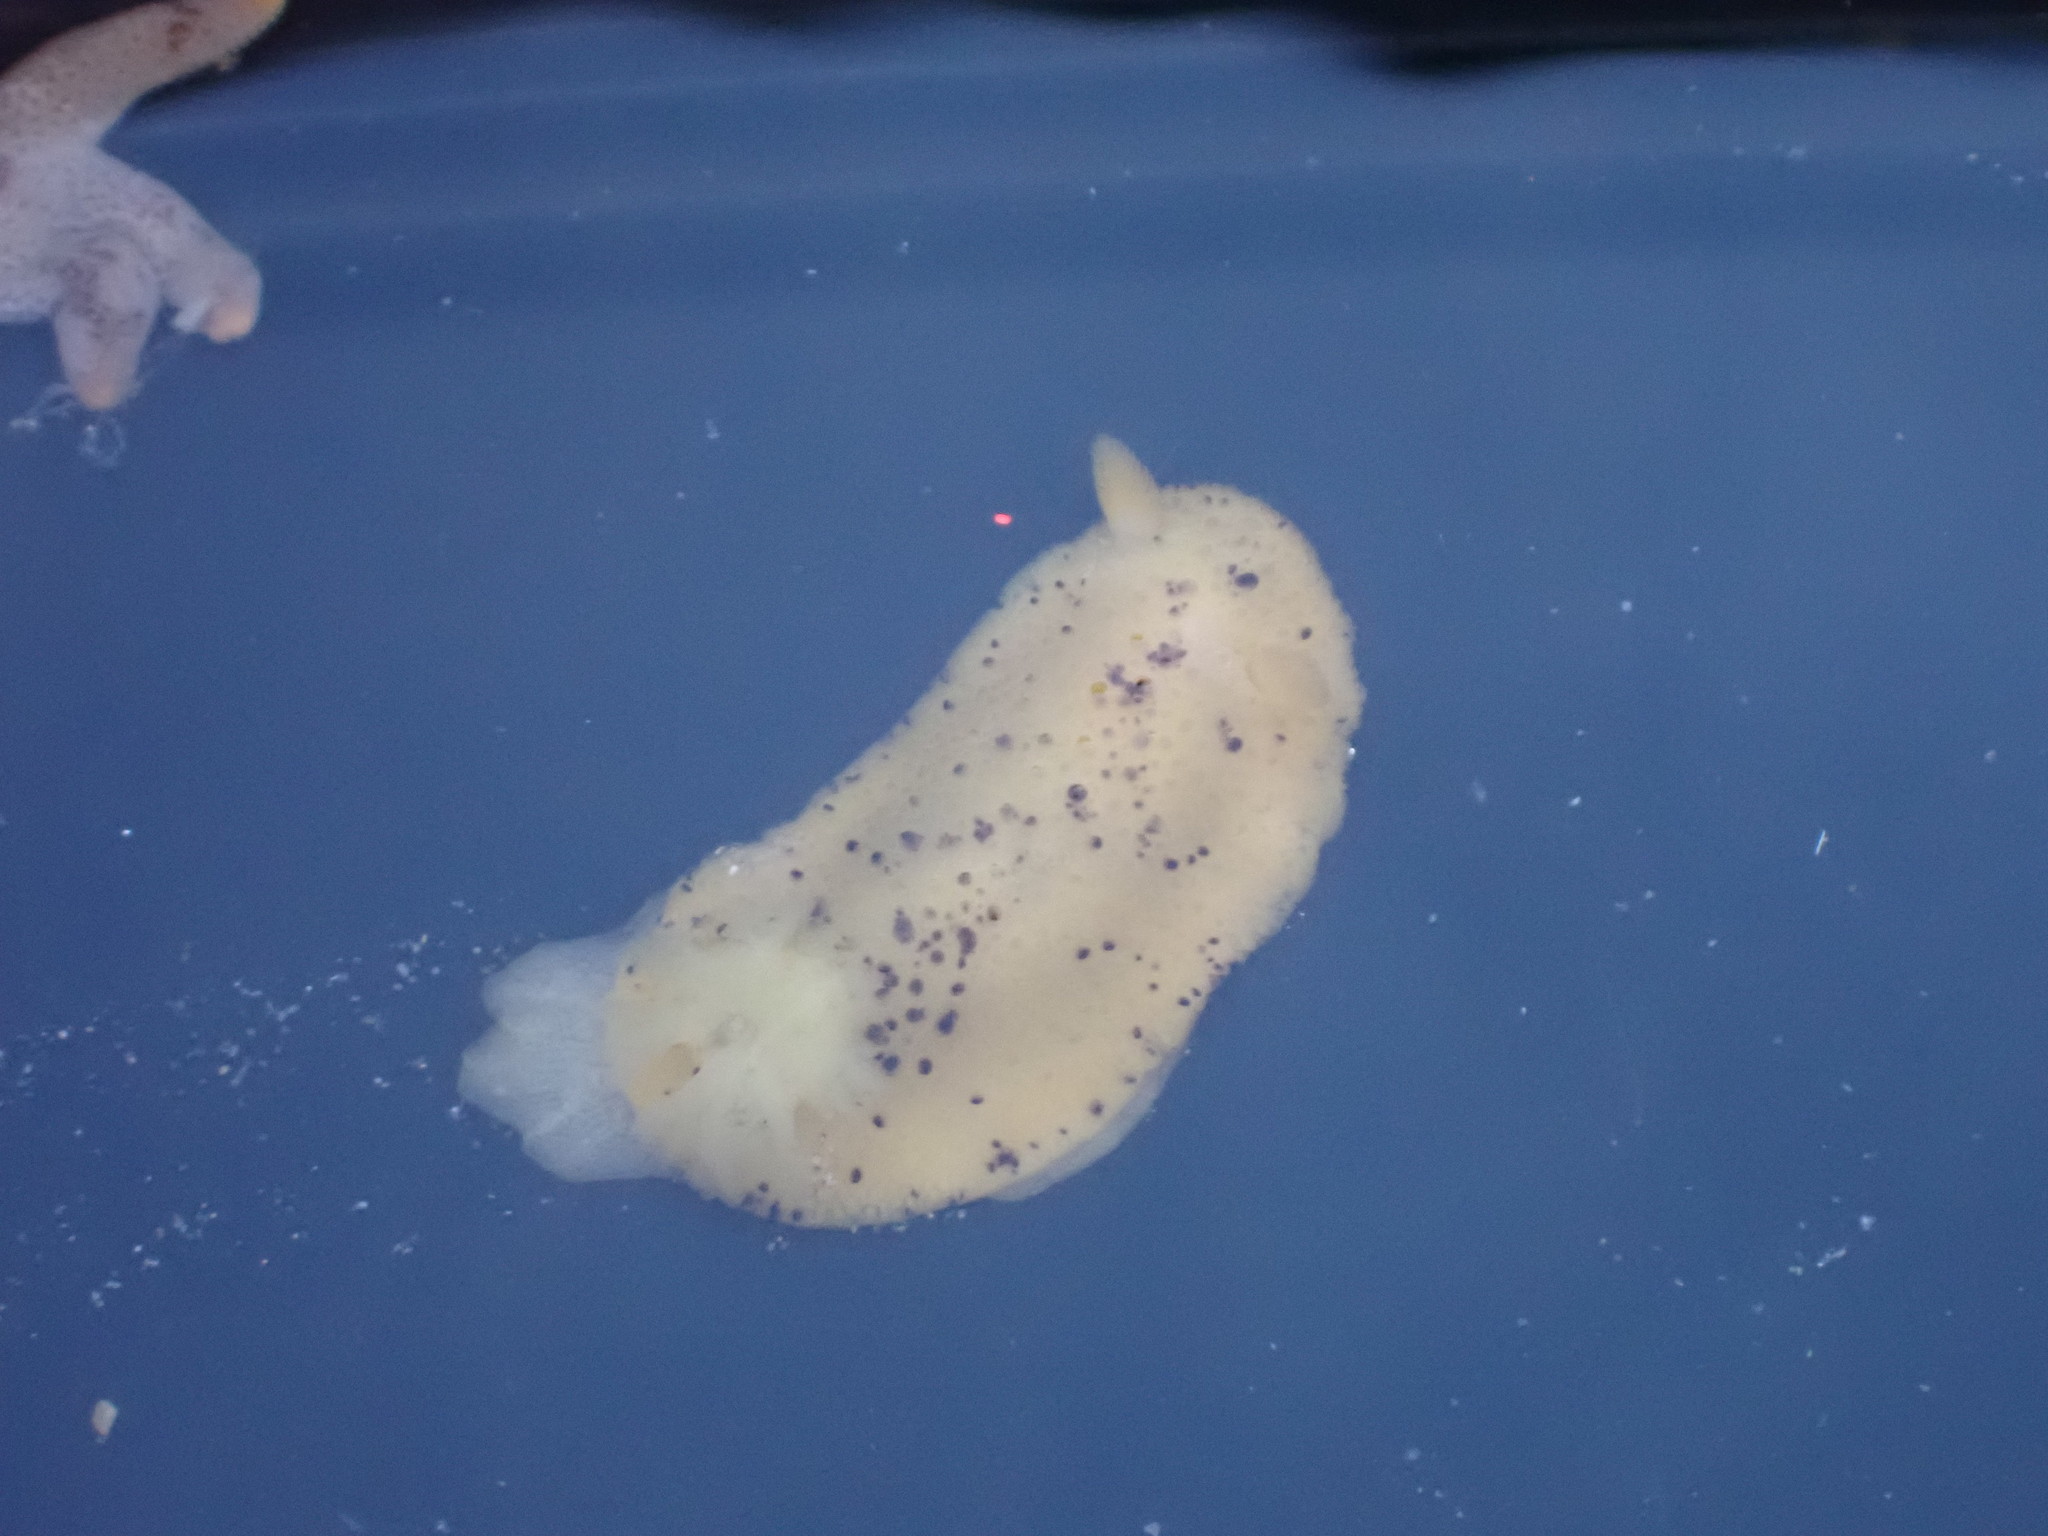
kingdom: Animalia
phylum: Mollusca
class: Gastropoda
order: Nudibranchia
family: Dorididae
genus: Doris
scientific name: Doris montereyensis
